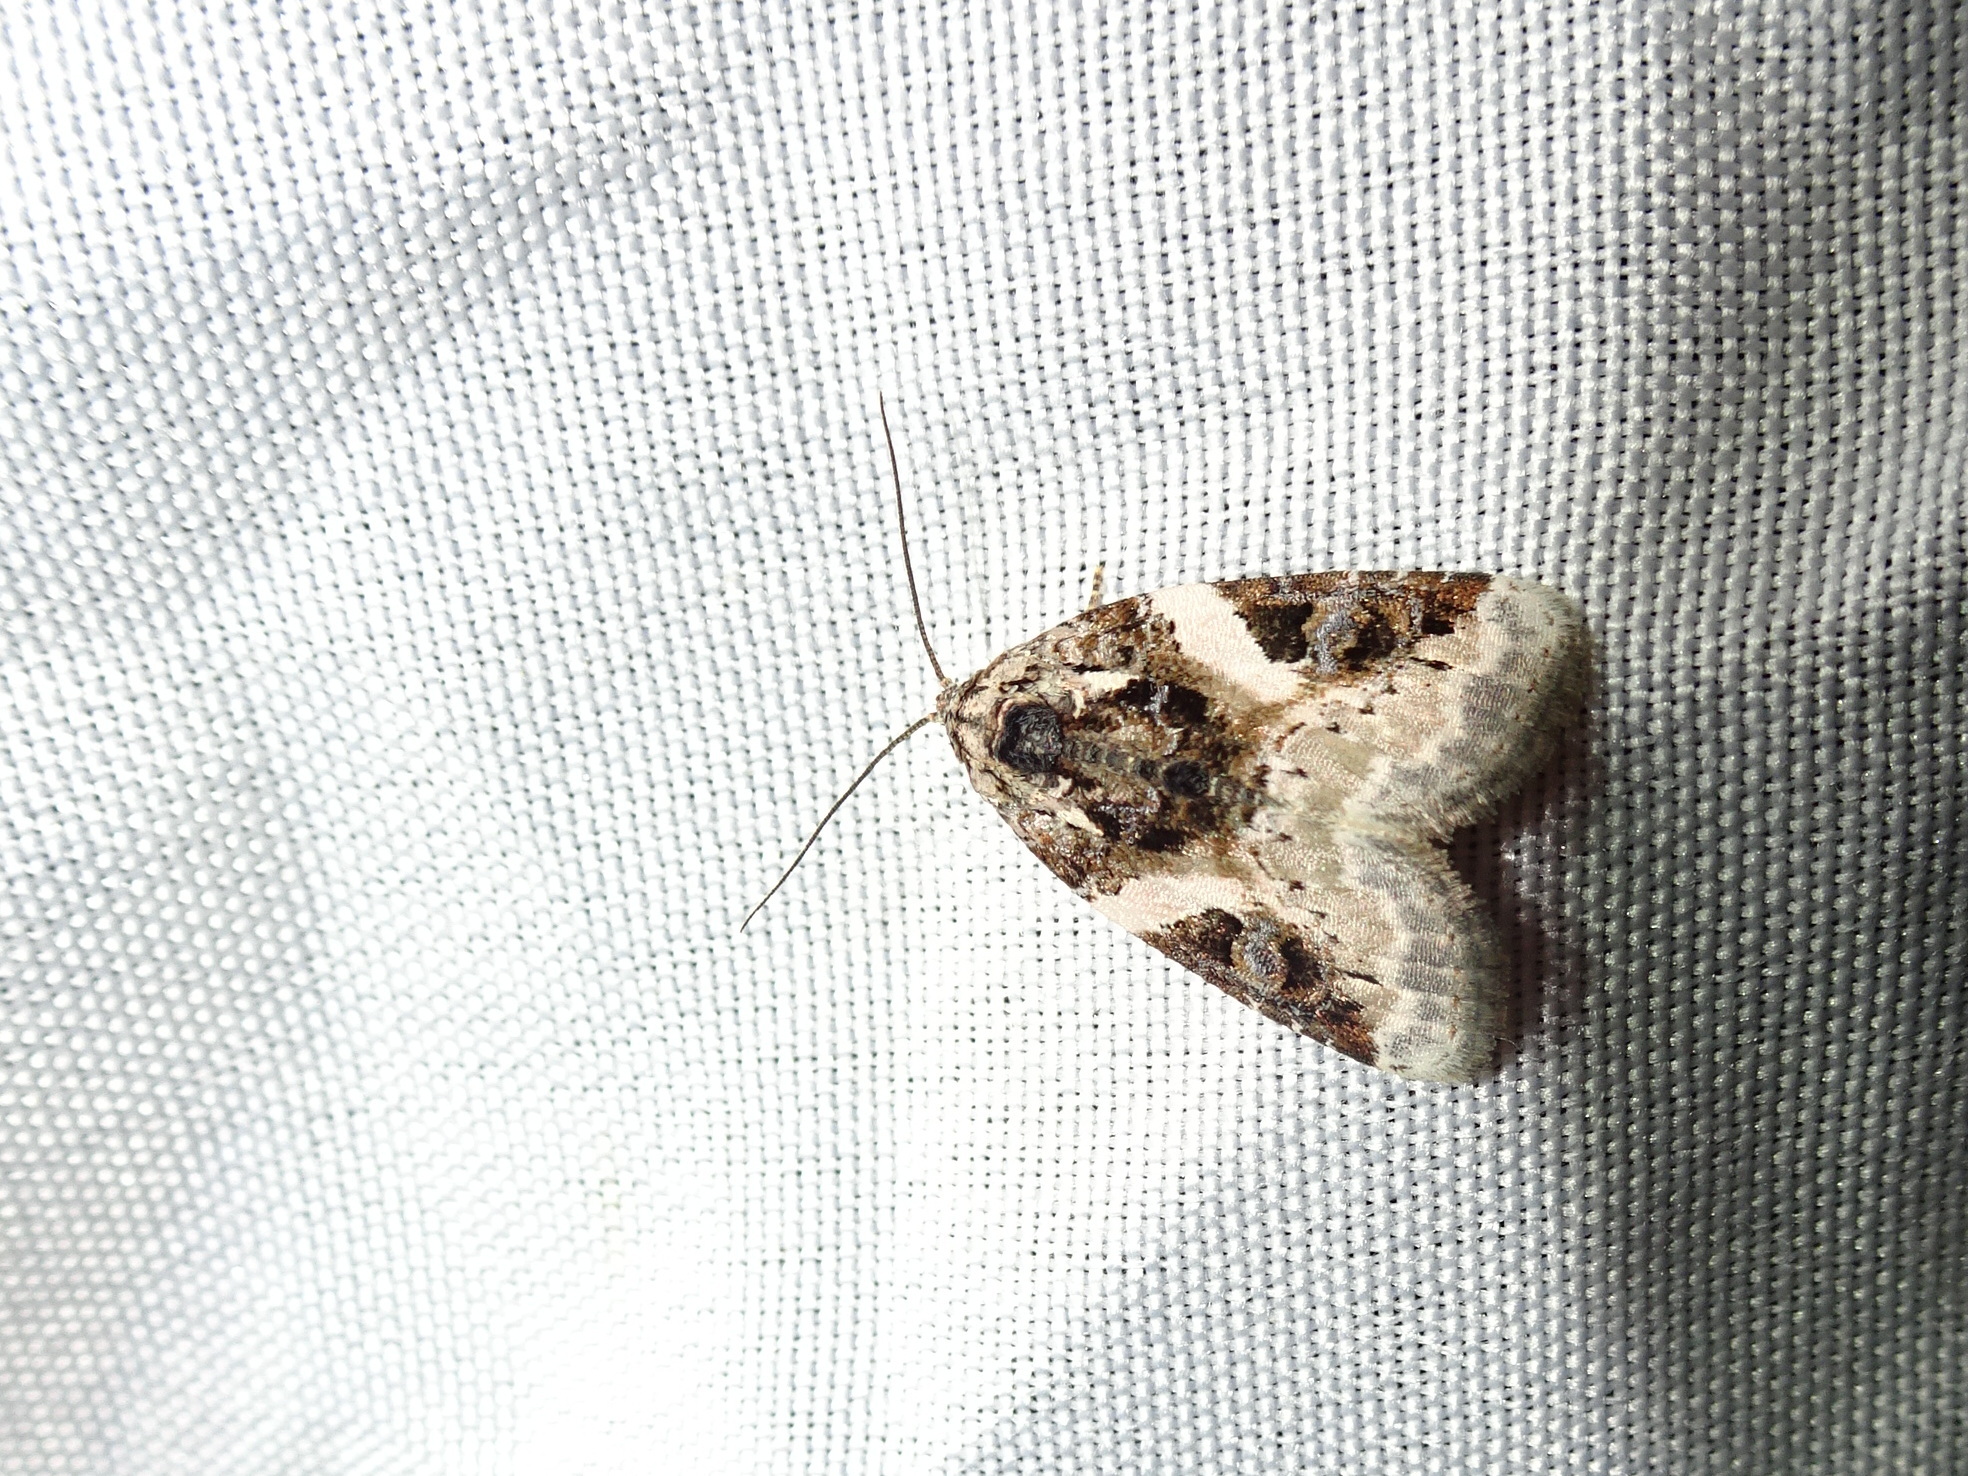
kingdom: Animalia
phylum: Arthropoda
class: Insecta
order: Lepidoptera
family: Noctuidae
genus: Pseudeustrotia
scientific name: Pseudeustrotia carneola
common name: Pink-barred lithacodia moth
